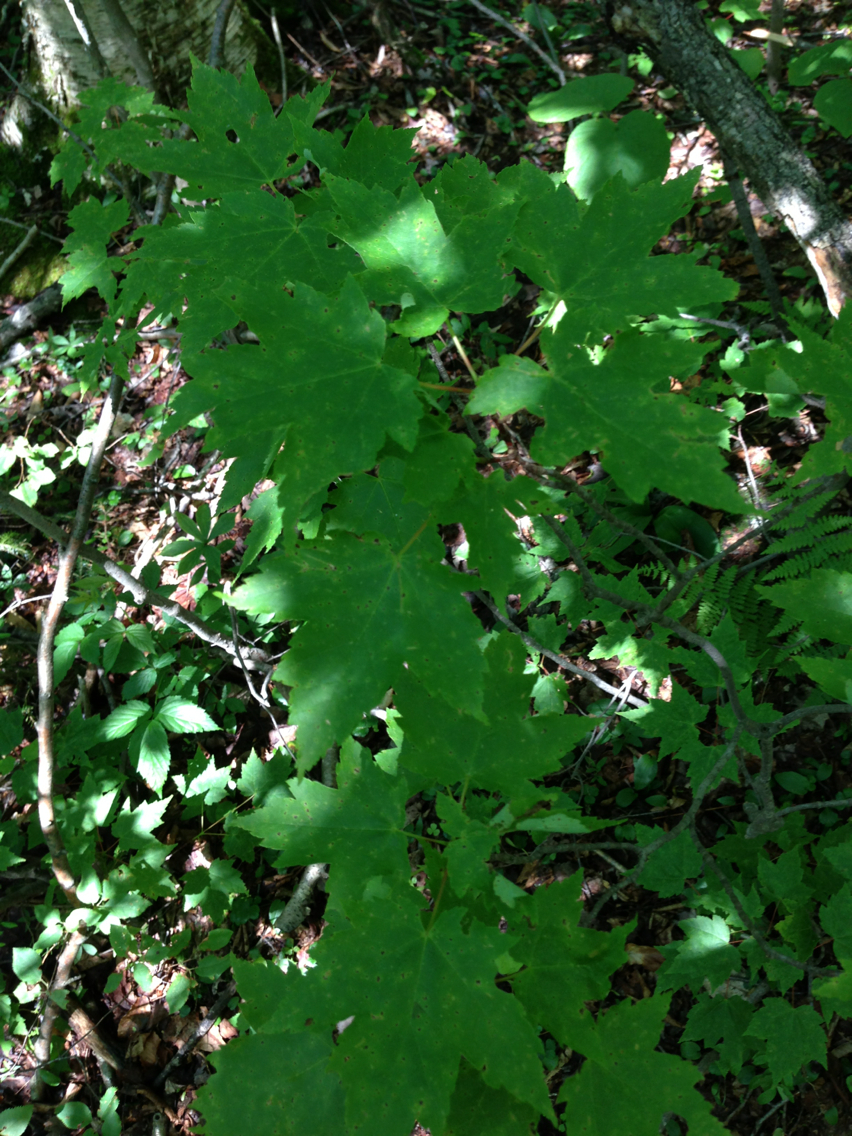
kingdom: Plantae
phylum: Tracheophyta
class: Magnoliopsida
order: Sapindales
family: Sapindaceae
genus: Acer
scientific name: Acer rubrum
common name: Red maple
